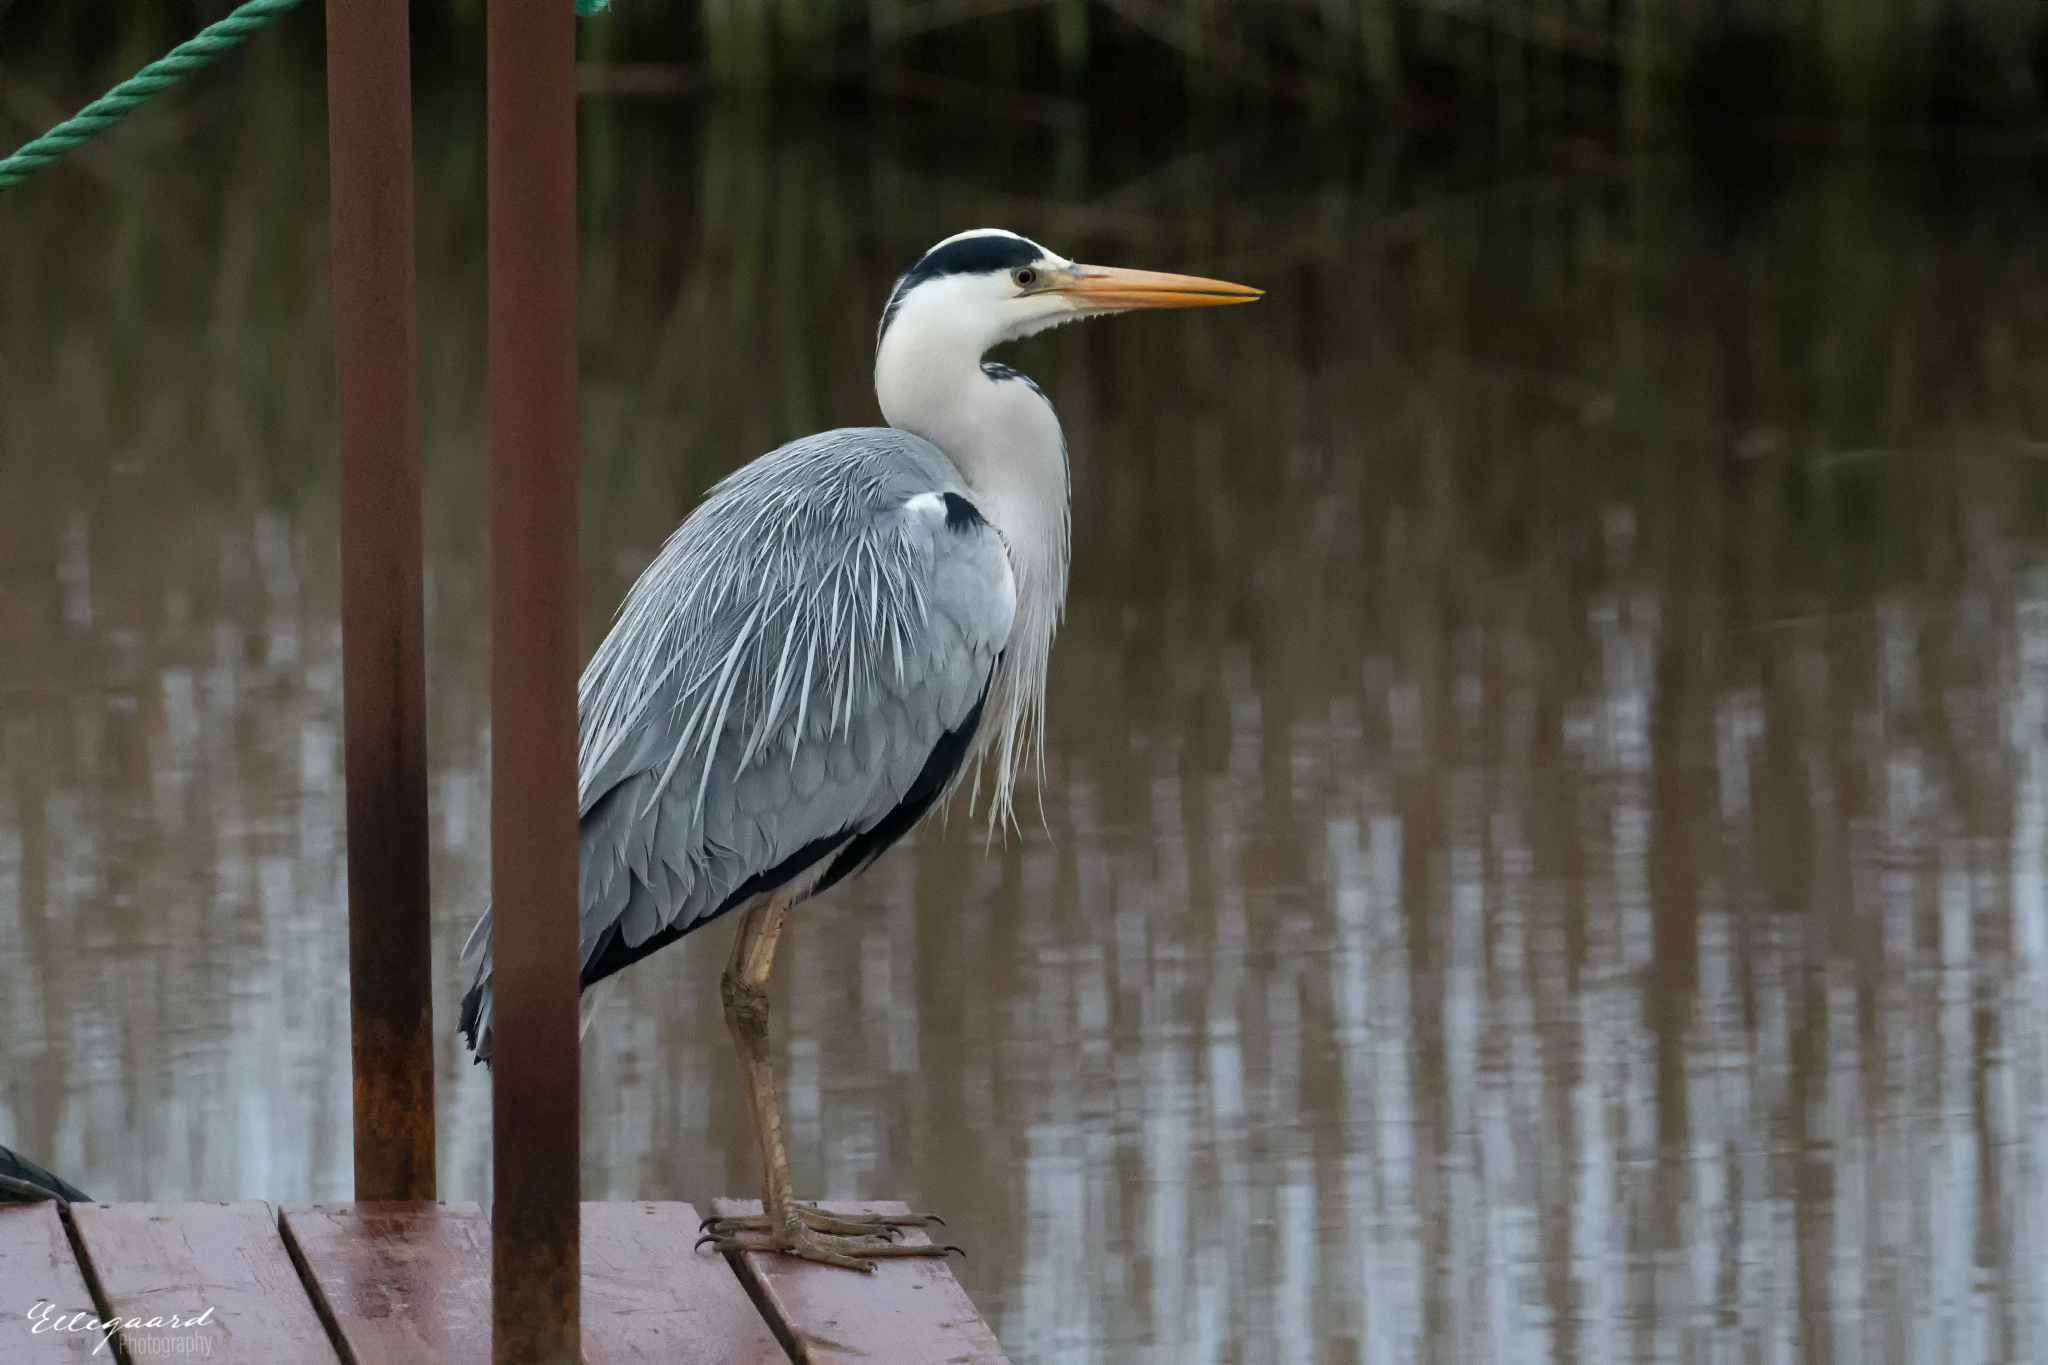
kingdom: Animalia
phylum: Chordata
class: Aves
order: Pelecaniformes
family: Ardeidae
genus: Ardea
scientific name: Ardea cinerea
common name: Grey heron
